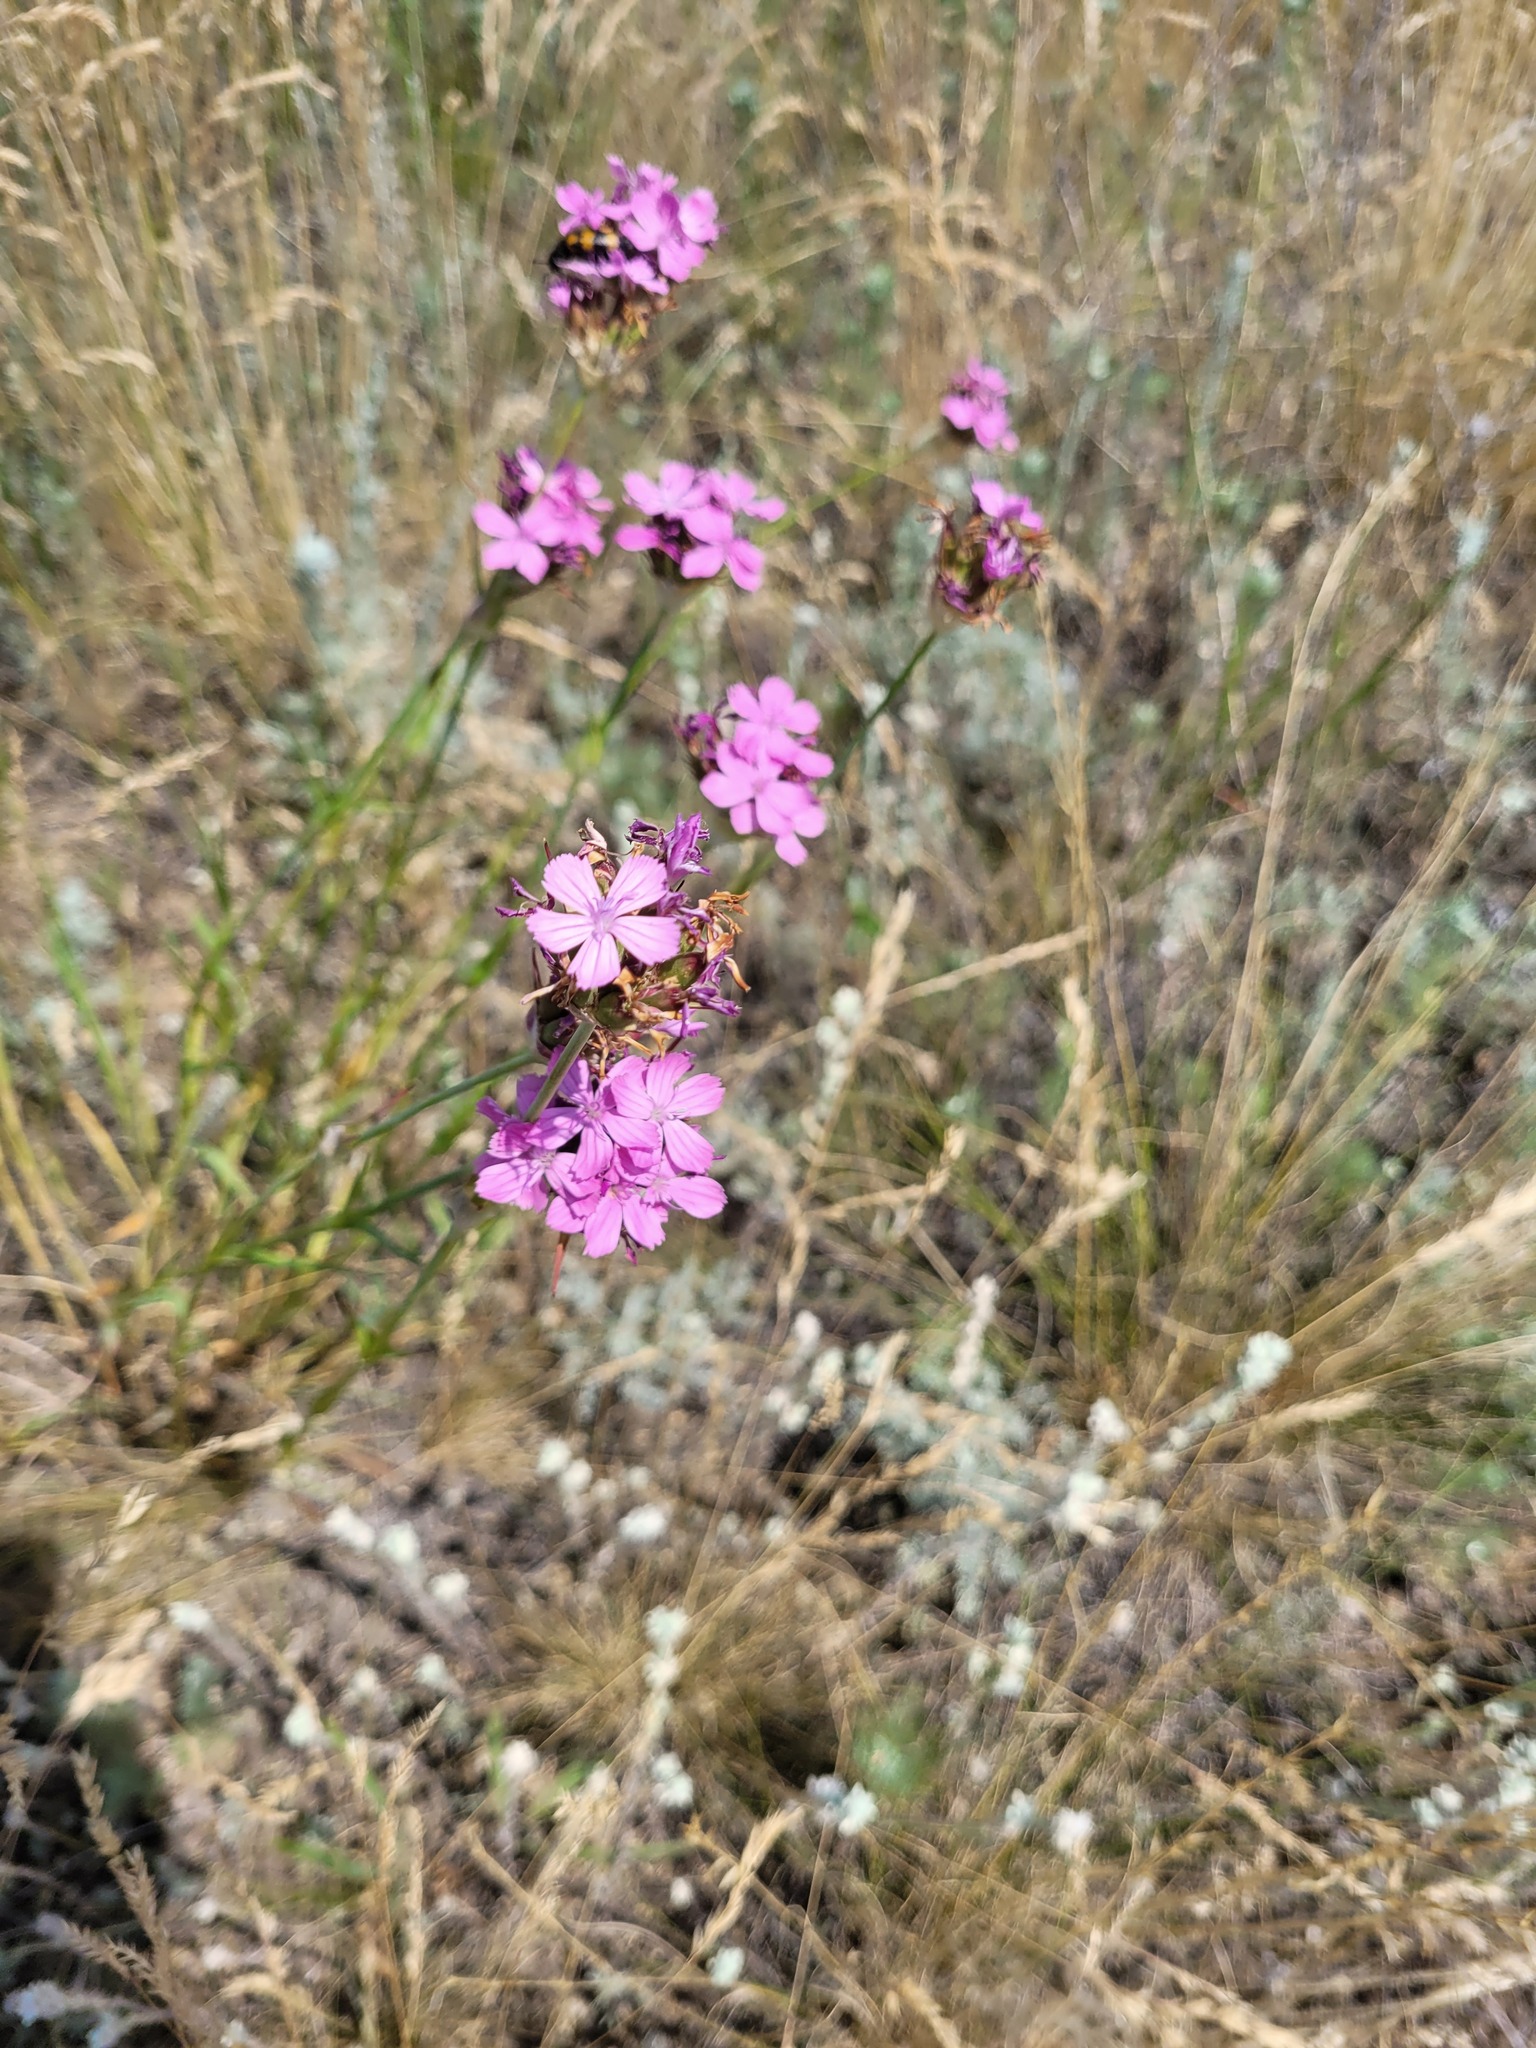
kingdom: Plantae
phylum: Tracheophyta
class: Magnoliopsida
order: Caryophyllales
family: Caryophyllaceae
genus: Dianthus
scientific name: Dianthus capitatus
